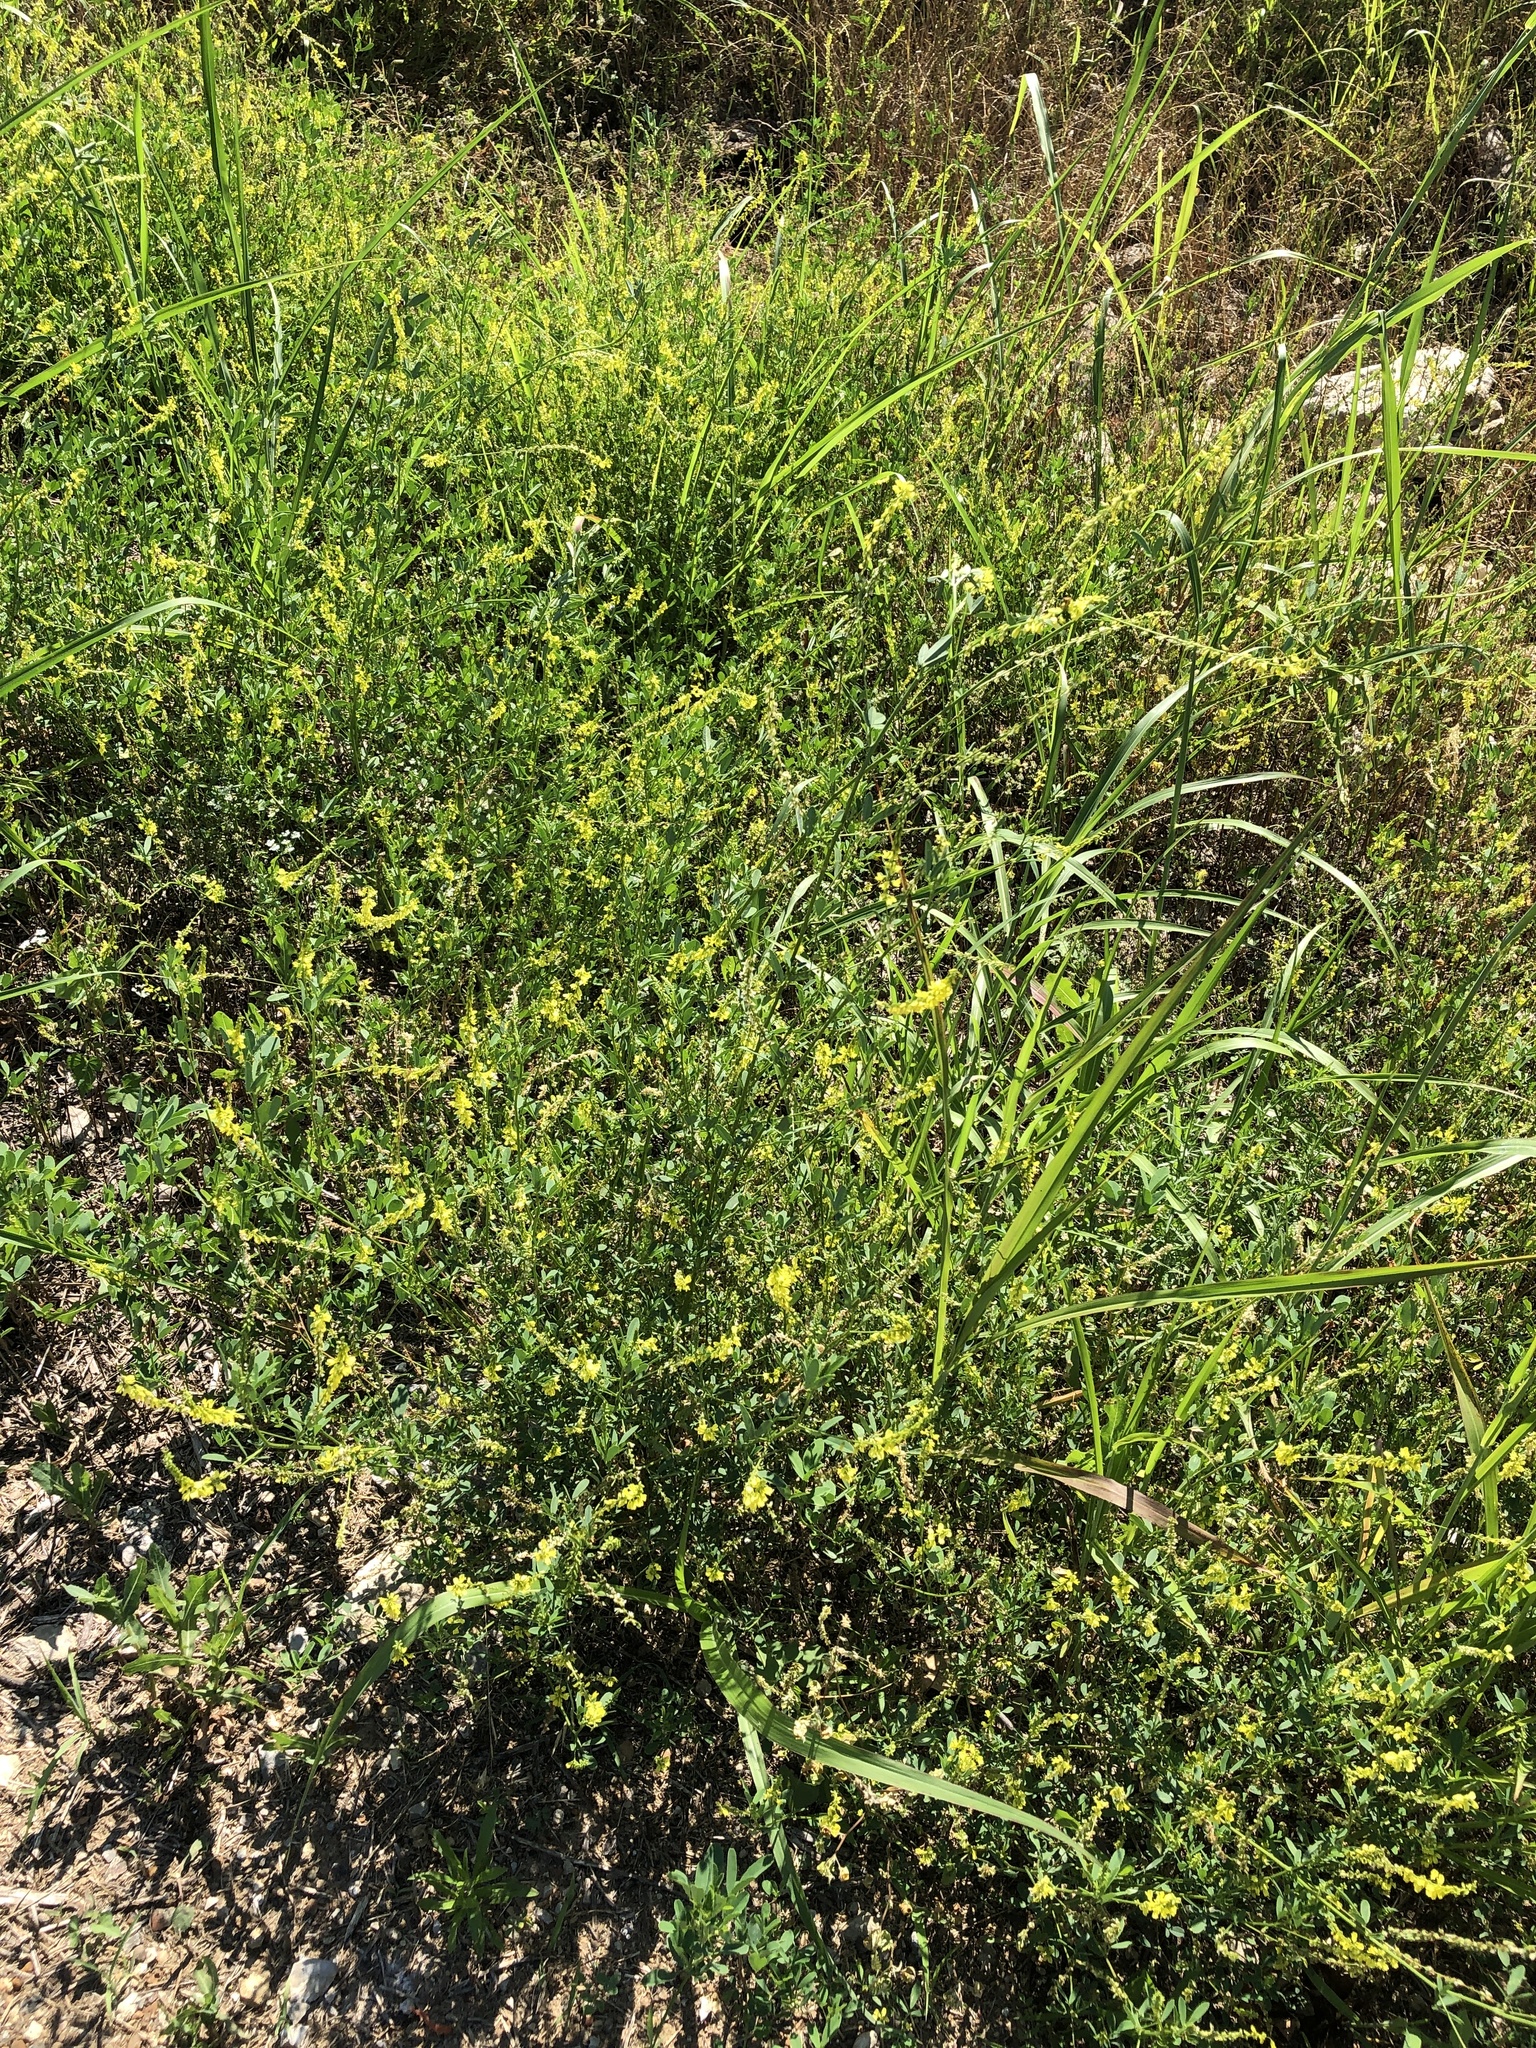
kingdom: Plantae
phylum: Tracheophyta
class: Magnoliopsida
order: Fabales
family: Fabaceae
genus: Melilotus
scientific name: Melilotus officinalis
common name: Sweetclover
